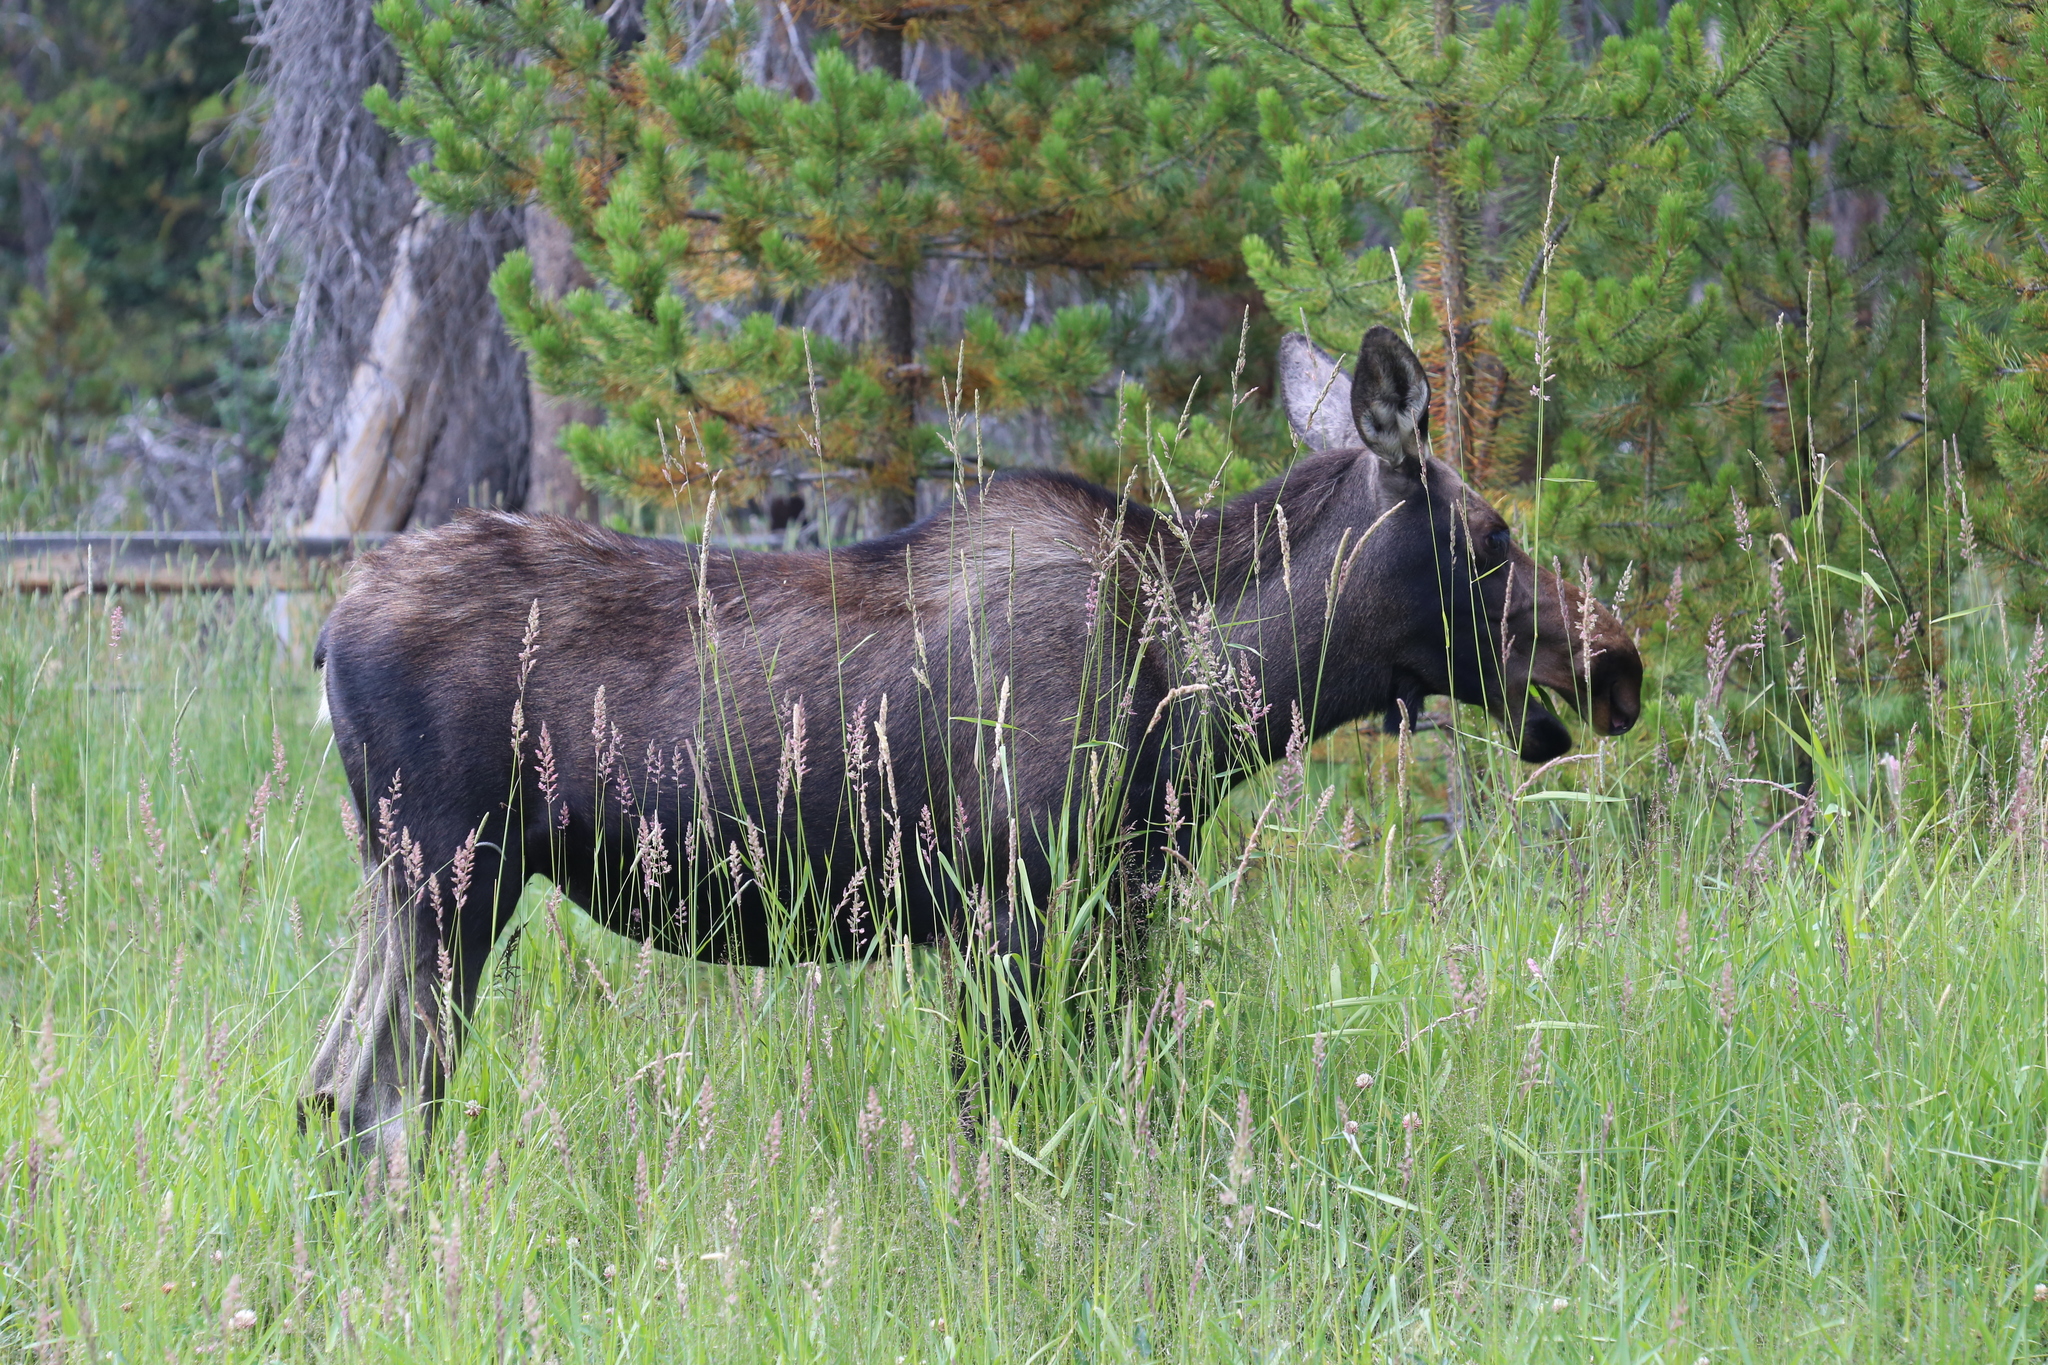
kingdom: Animalia
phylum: Chordata
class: Mammalia
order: Artiodactyla
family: Cervidae
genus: Alces
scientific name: Alces alces
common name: Moose
